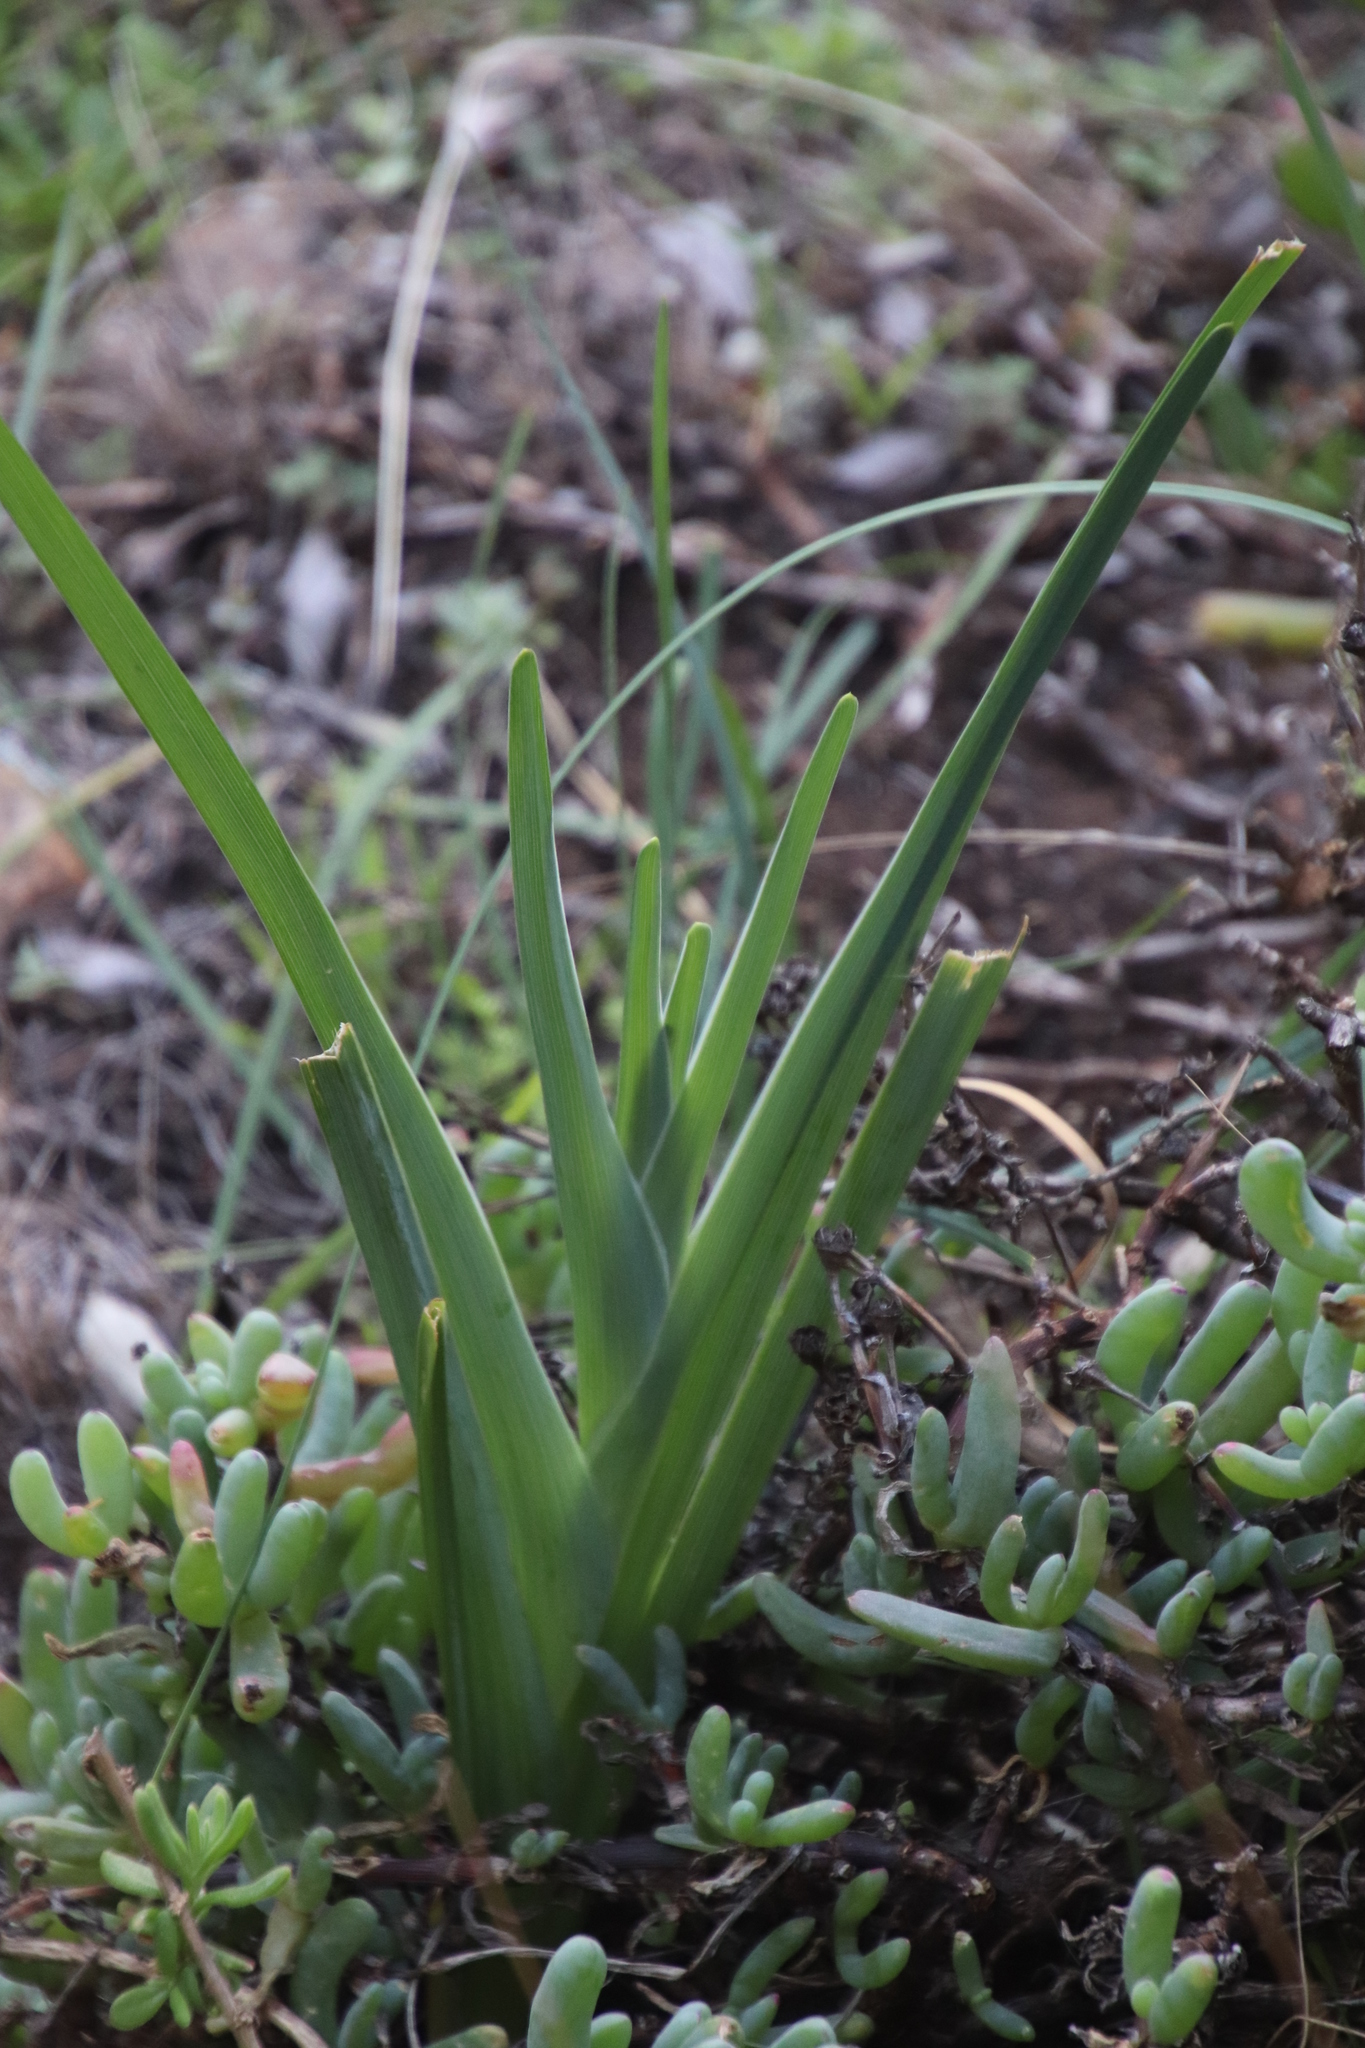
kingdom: Plantae
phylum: Tracheophyta
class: Liliopsida
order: Asparagales
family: Iridaceae
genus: Ferraria
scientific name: Ferraria crispa
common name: Black-flag
